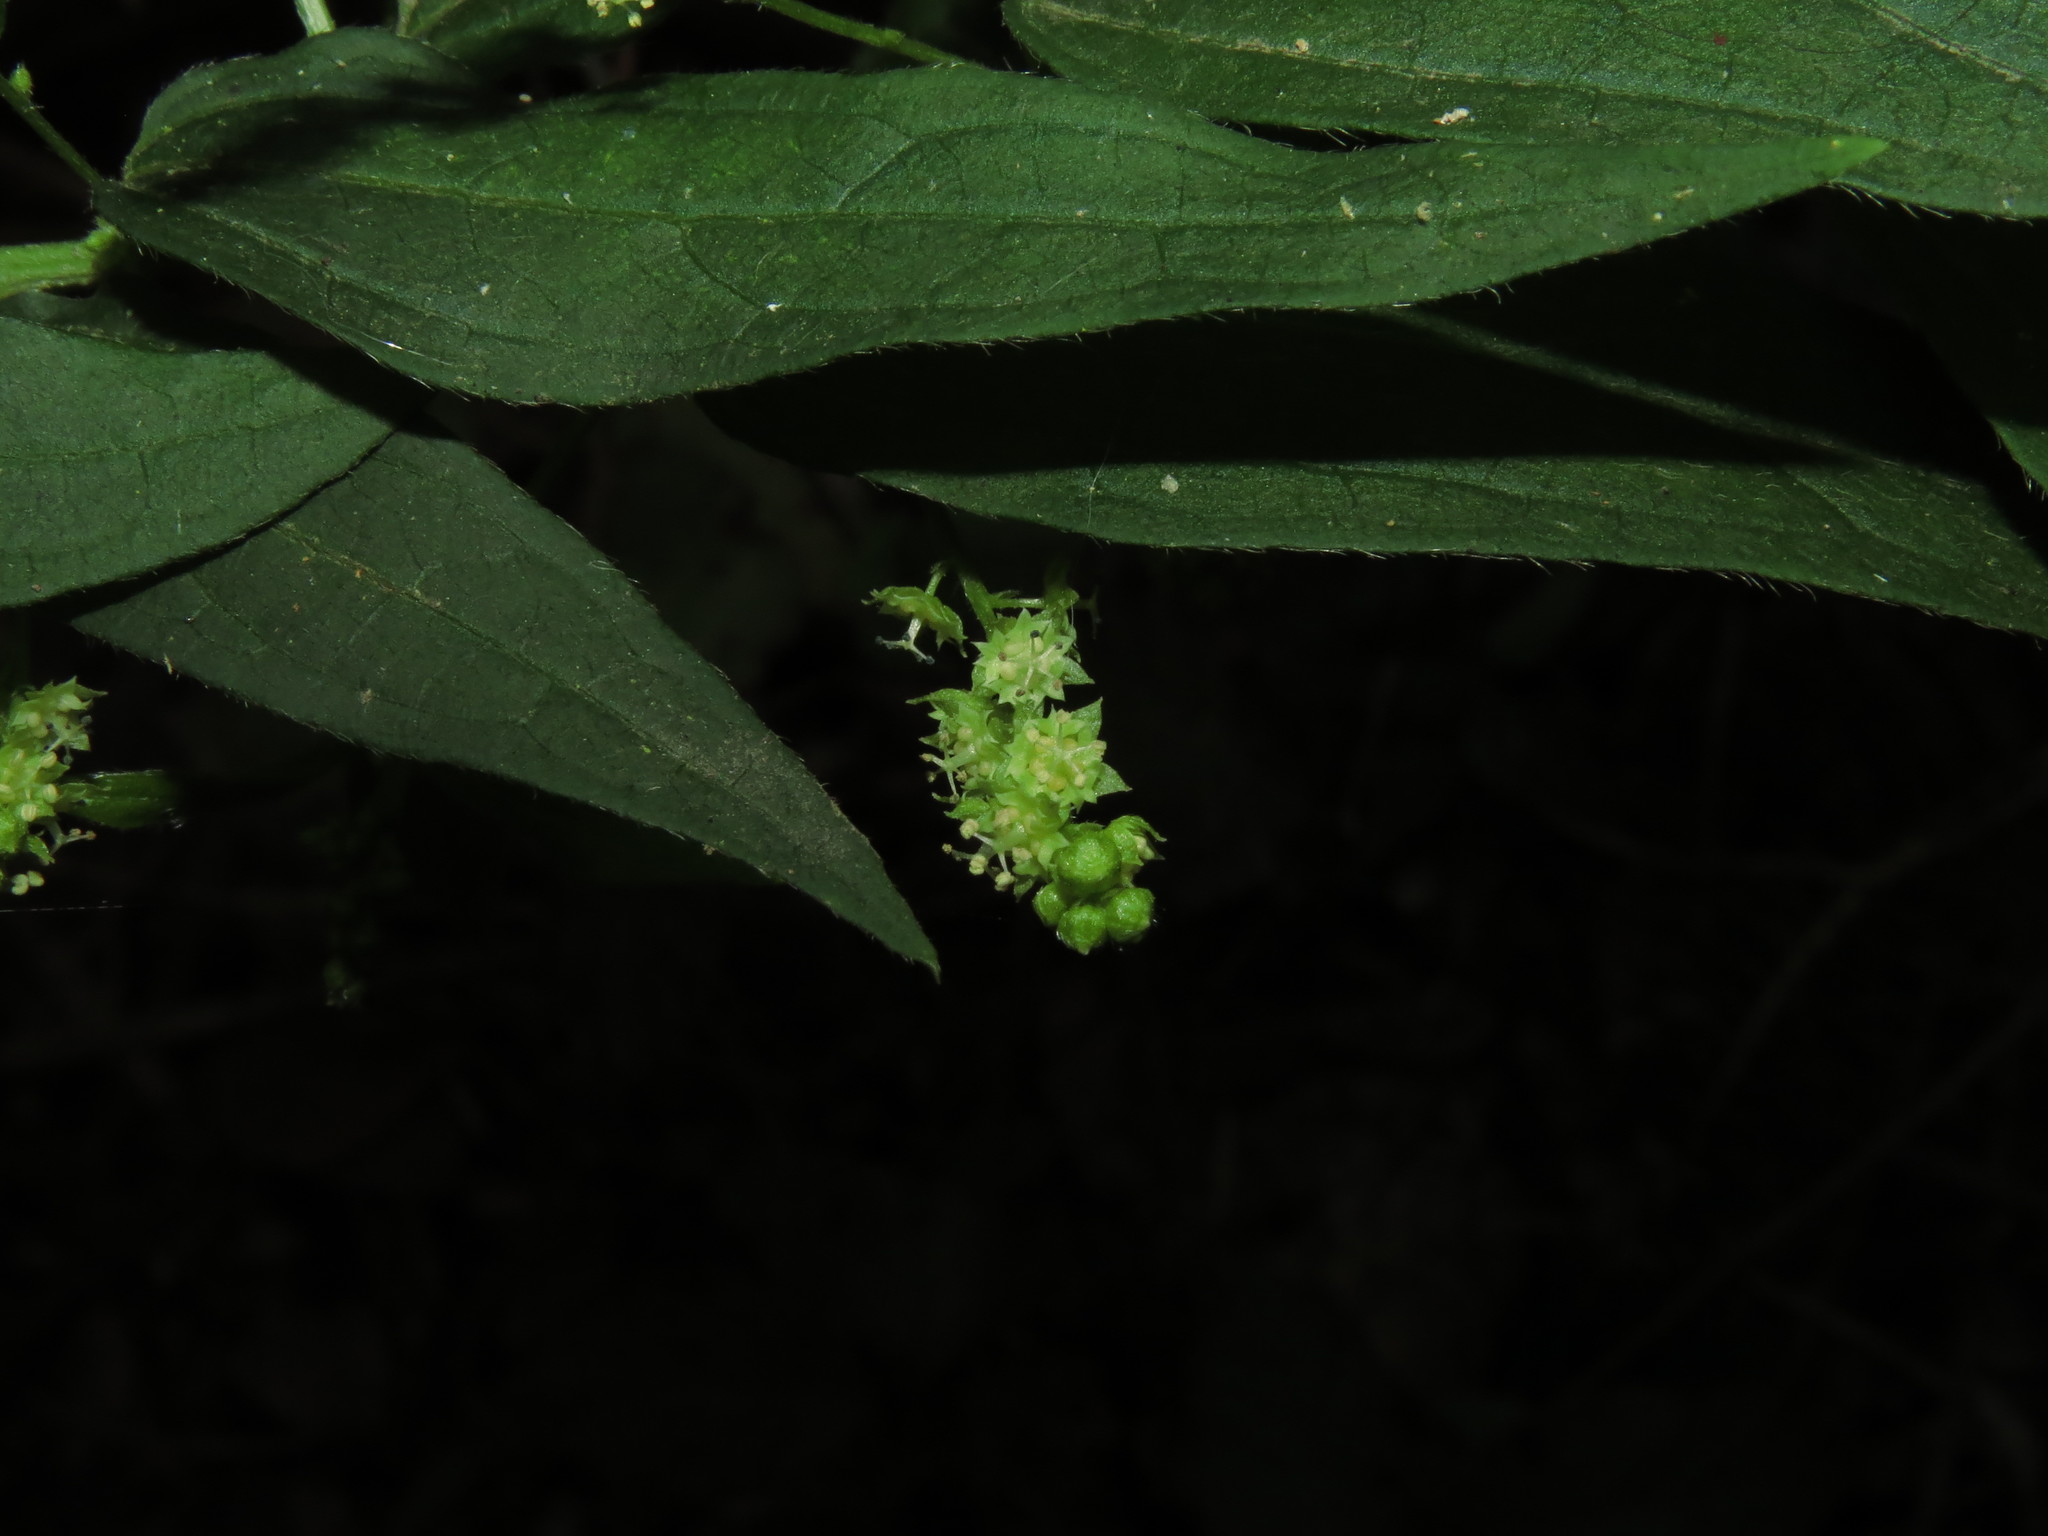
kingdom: Plantae
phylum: Tracheophyta
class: Magnoliopsida
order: Malpighiales
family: Euphorbiaceae
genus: Chiropetalum
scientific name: Chiropetalum tricuspidatum
